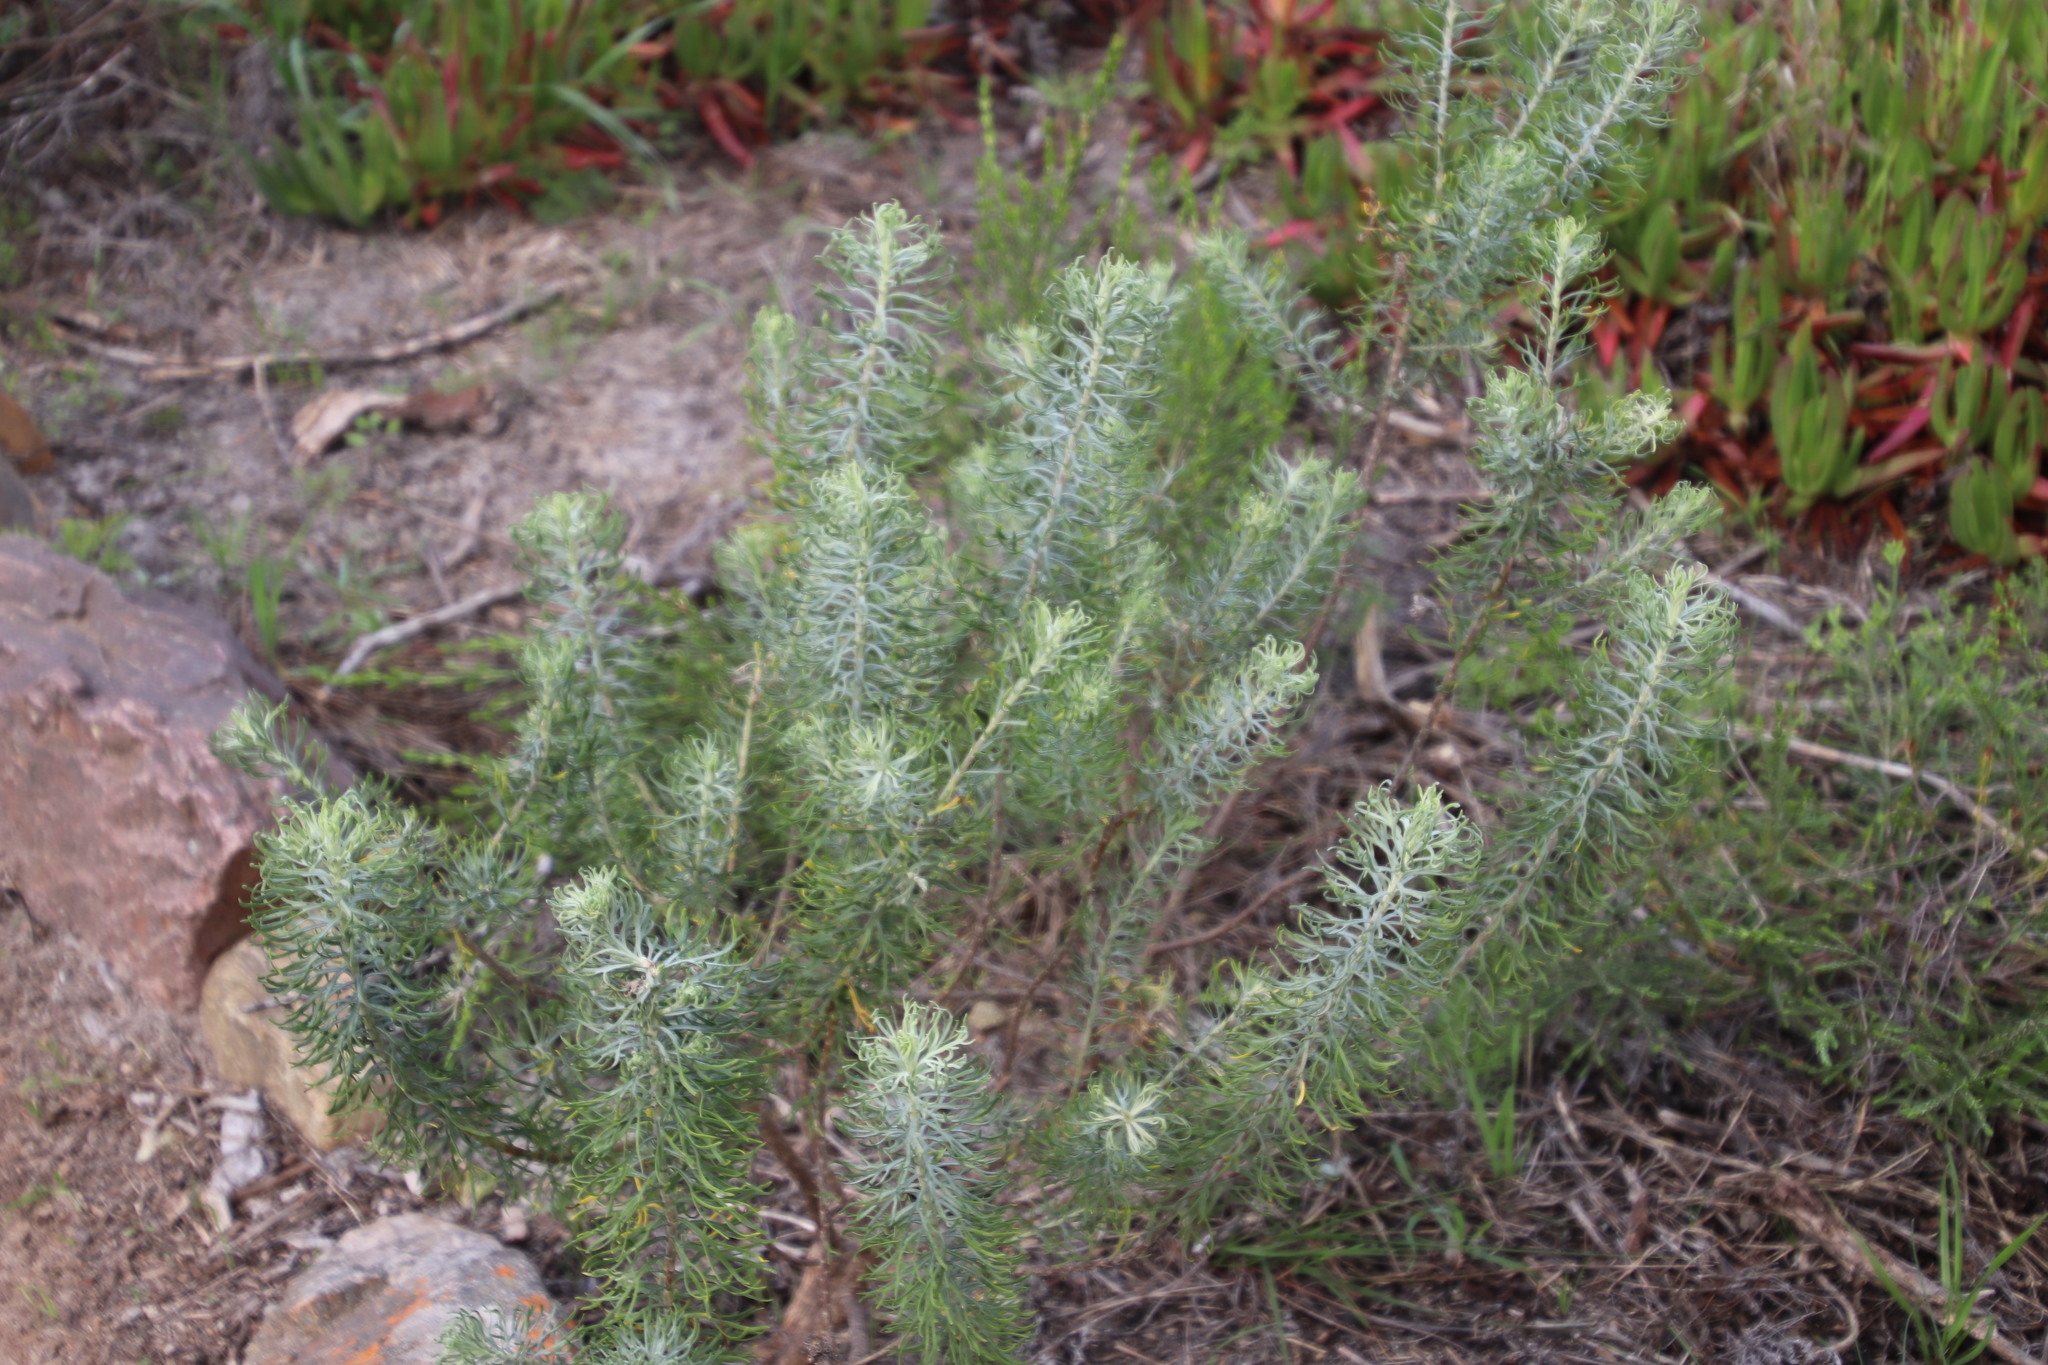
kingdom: Plantae
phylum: Tracheophyta
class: Magnoliopsida
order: Asterales
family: Asteraceae
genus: Athanasia
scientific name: Athanasia crithmifolia
